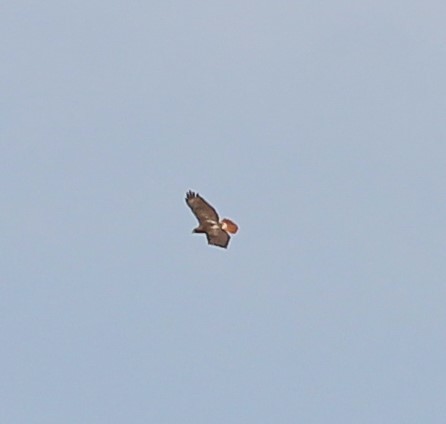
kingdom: Animalia
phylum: Chordata
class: Aves
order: Accipitriformes
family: Accipitridae
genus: Buteo
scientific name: Buteo jamaicensis
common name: Red-tailed hawk
